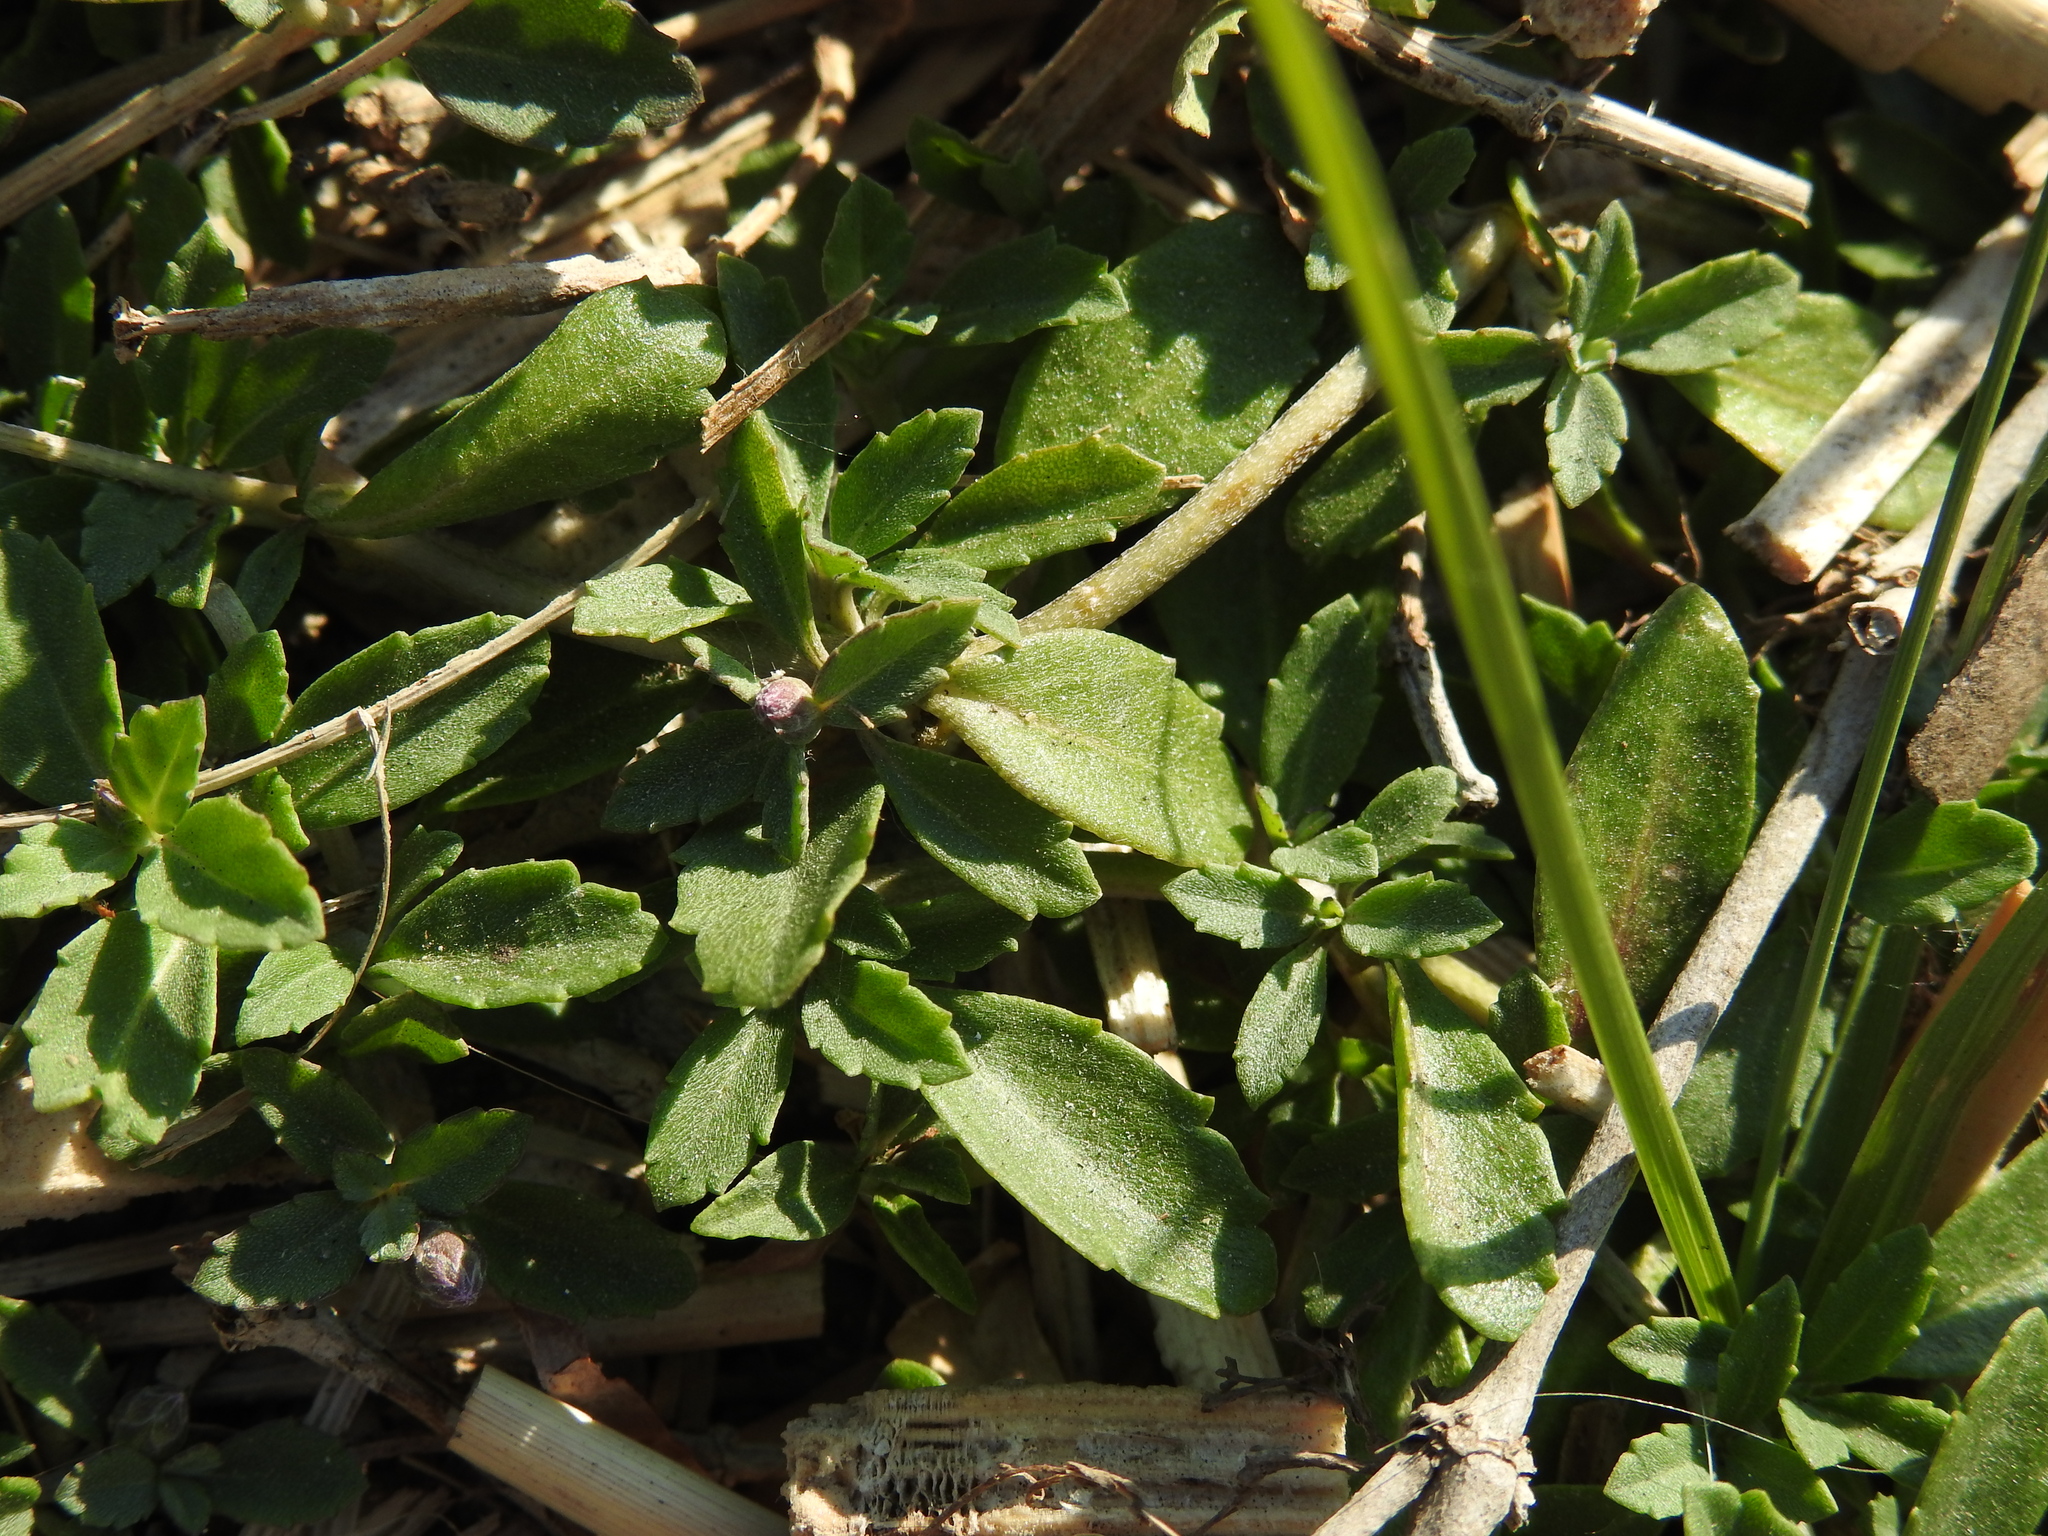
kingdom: Plantae
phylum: Tracheophyta
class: Magnoliopsida
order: Lamiales
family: Verbenaceae
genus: Phyla
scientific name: Phyla nodiflora
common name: Frogfruit
